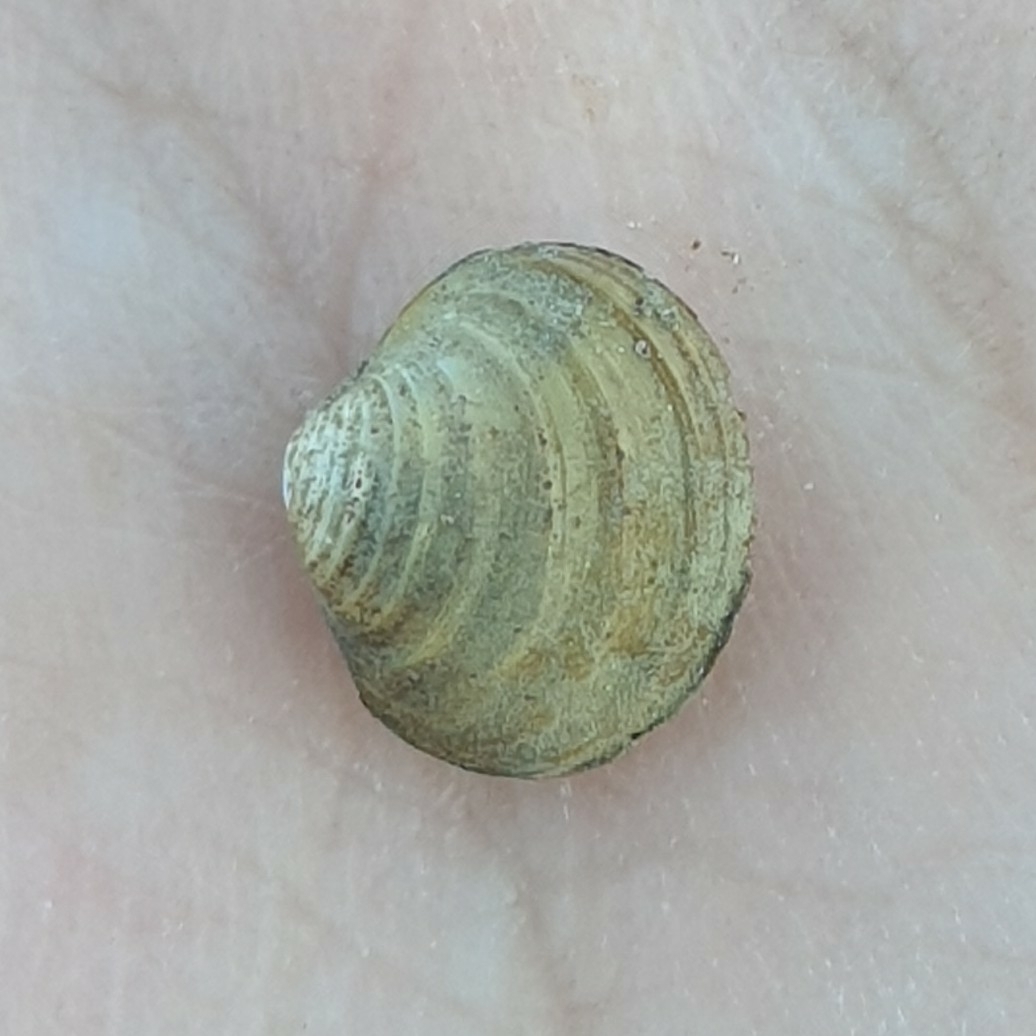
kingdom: Animalia
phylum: Mollusca
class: Bivalvia
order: Venerida
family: Cyrenidae
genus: Corbicula
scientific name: Corbicula fluminea
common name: Asian clam
